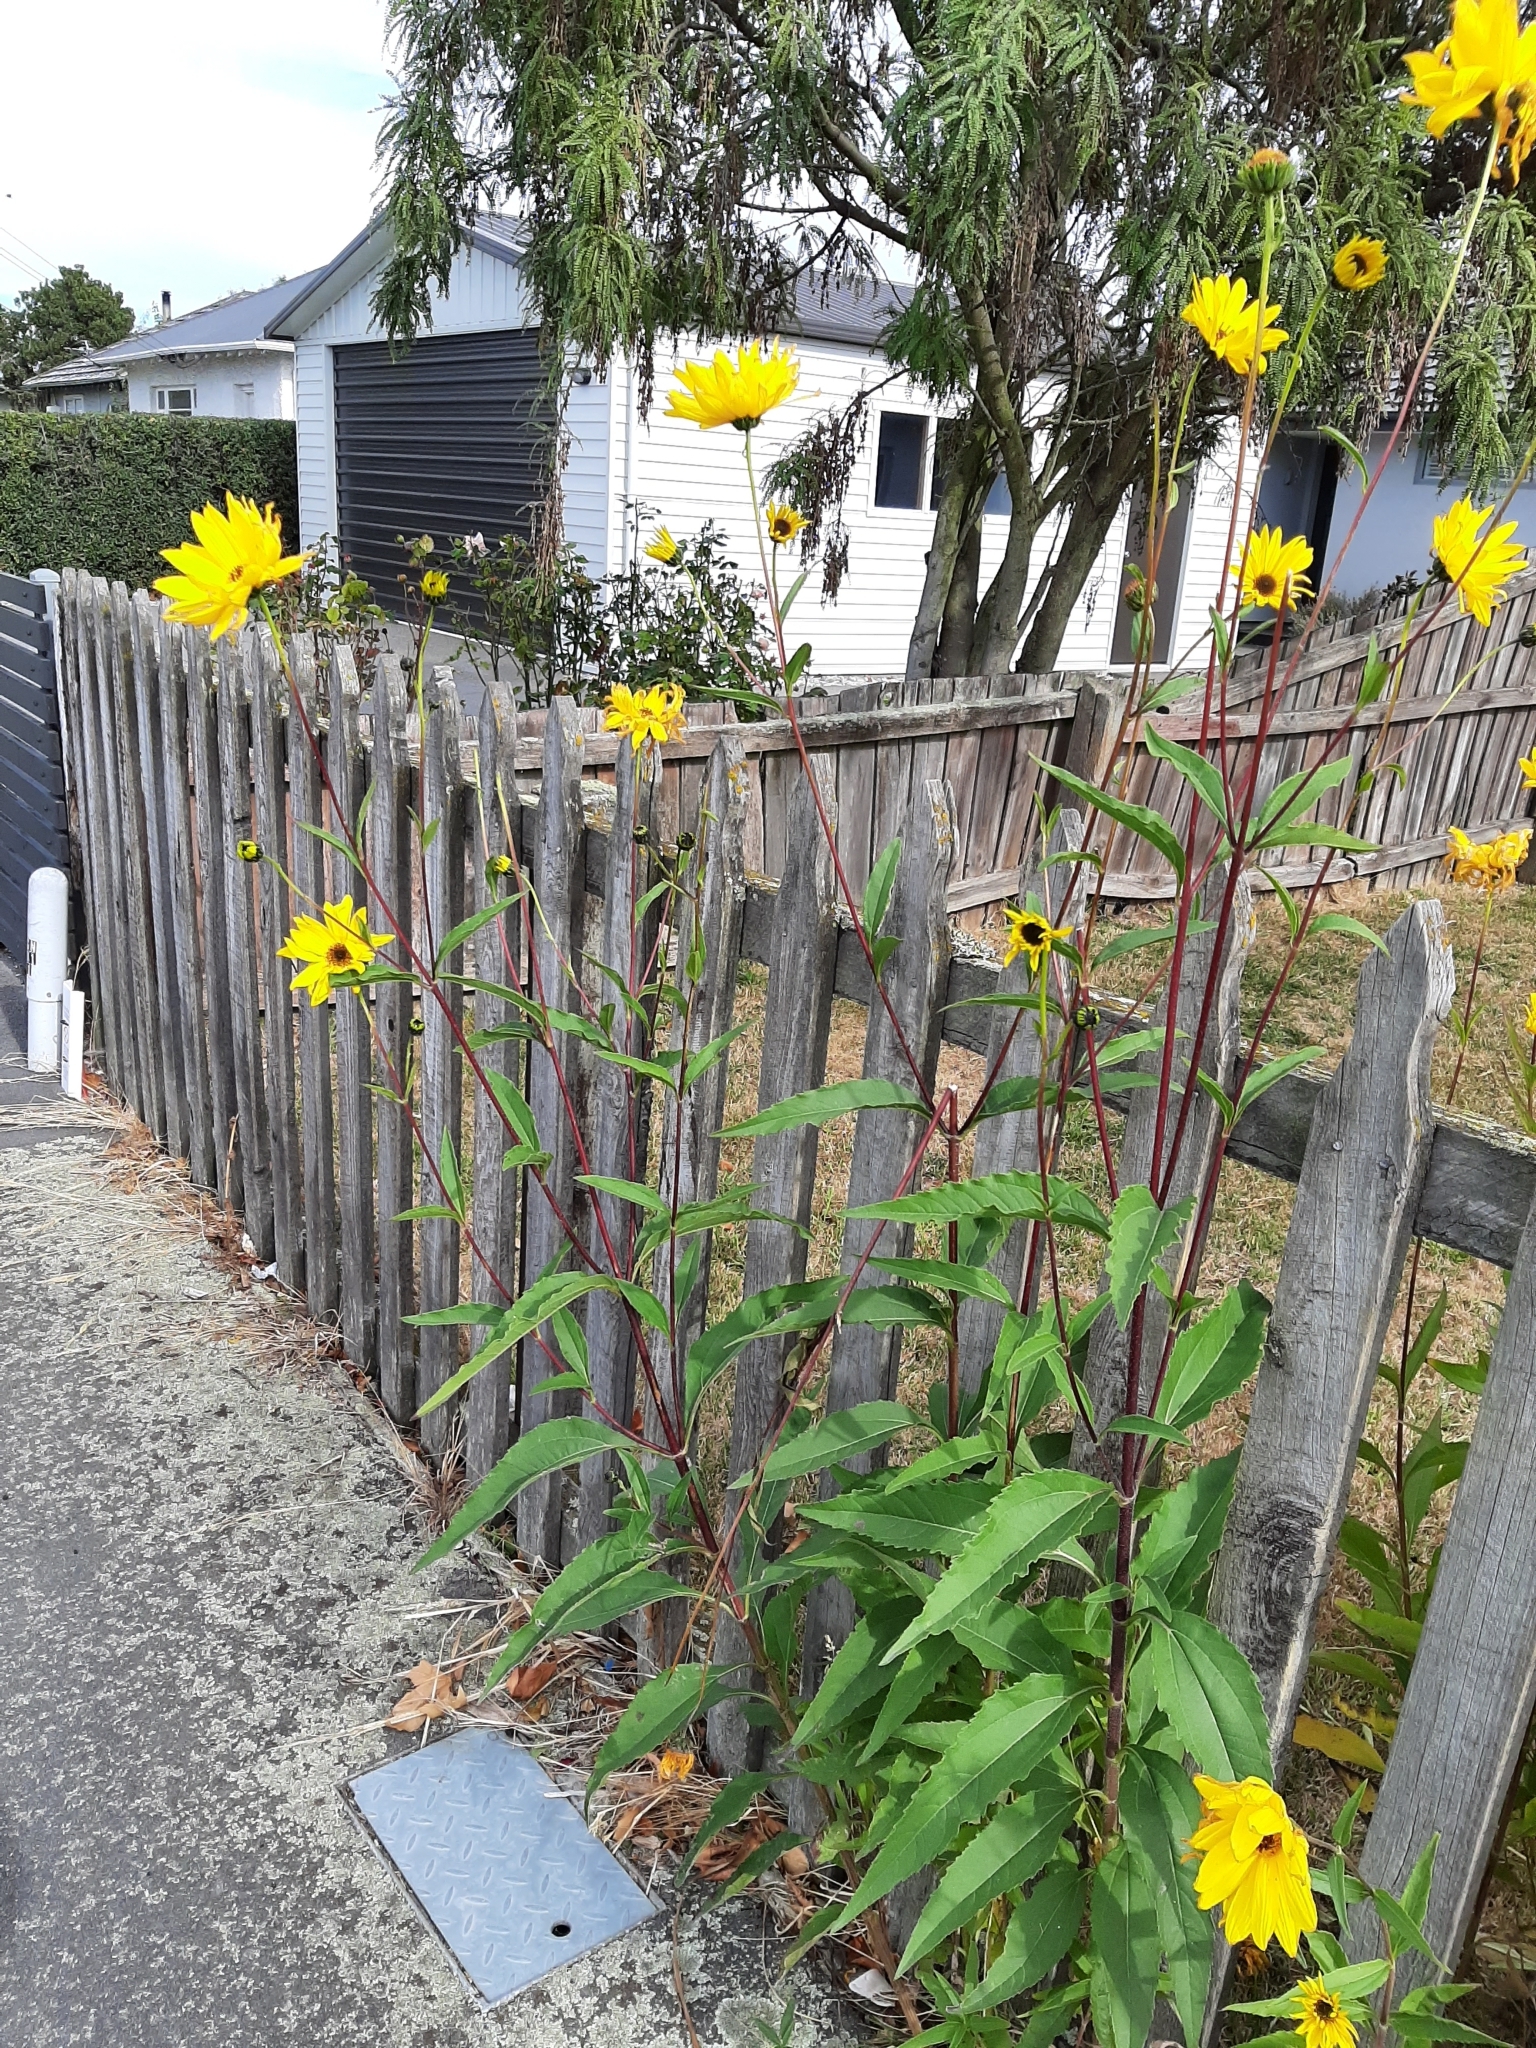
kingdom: Plantae
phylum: Tracheophyta
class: Magnoliopsida
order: Asterales
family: Asteraceae
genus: Helianthus
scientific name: Helianthus tuberosus
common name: Jerusalem artichoke
